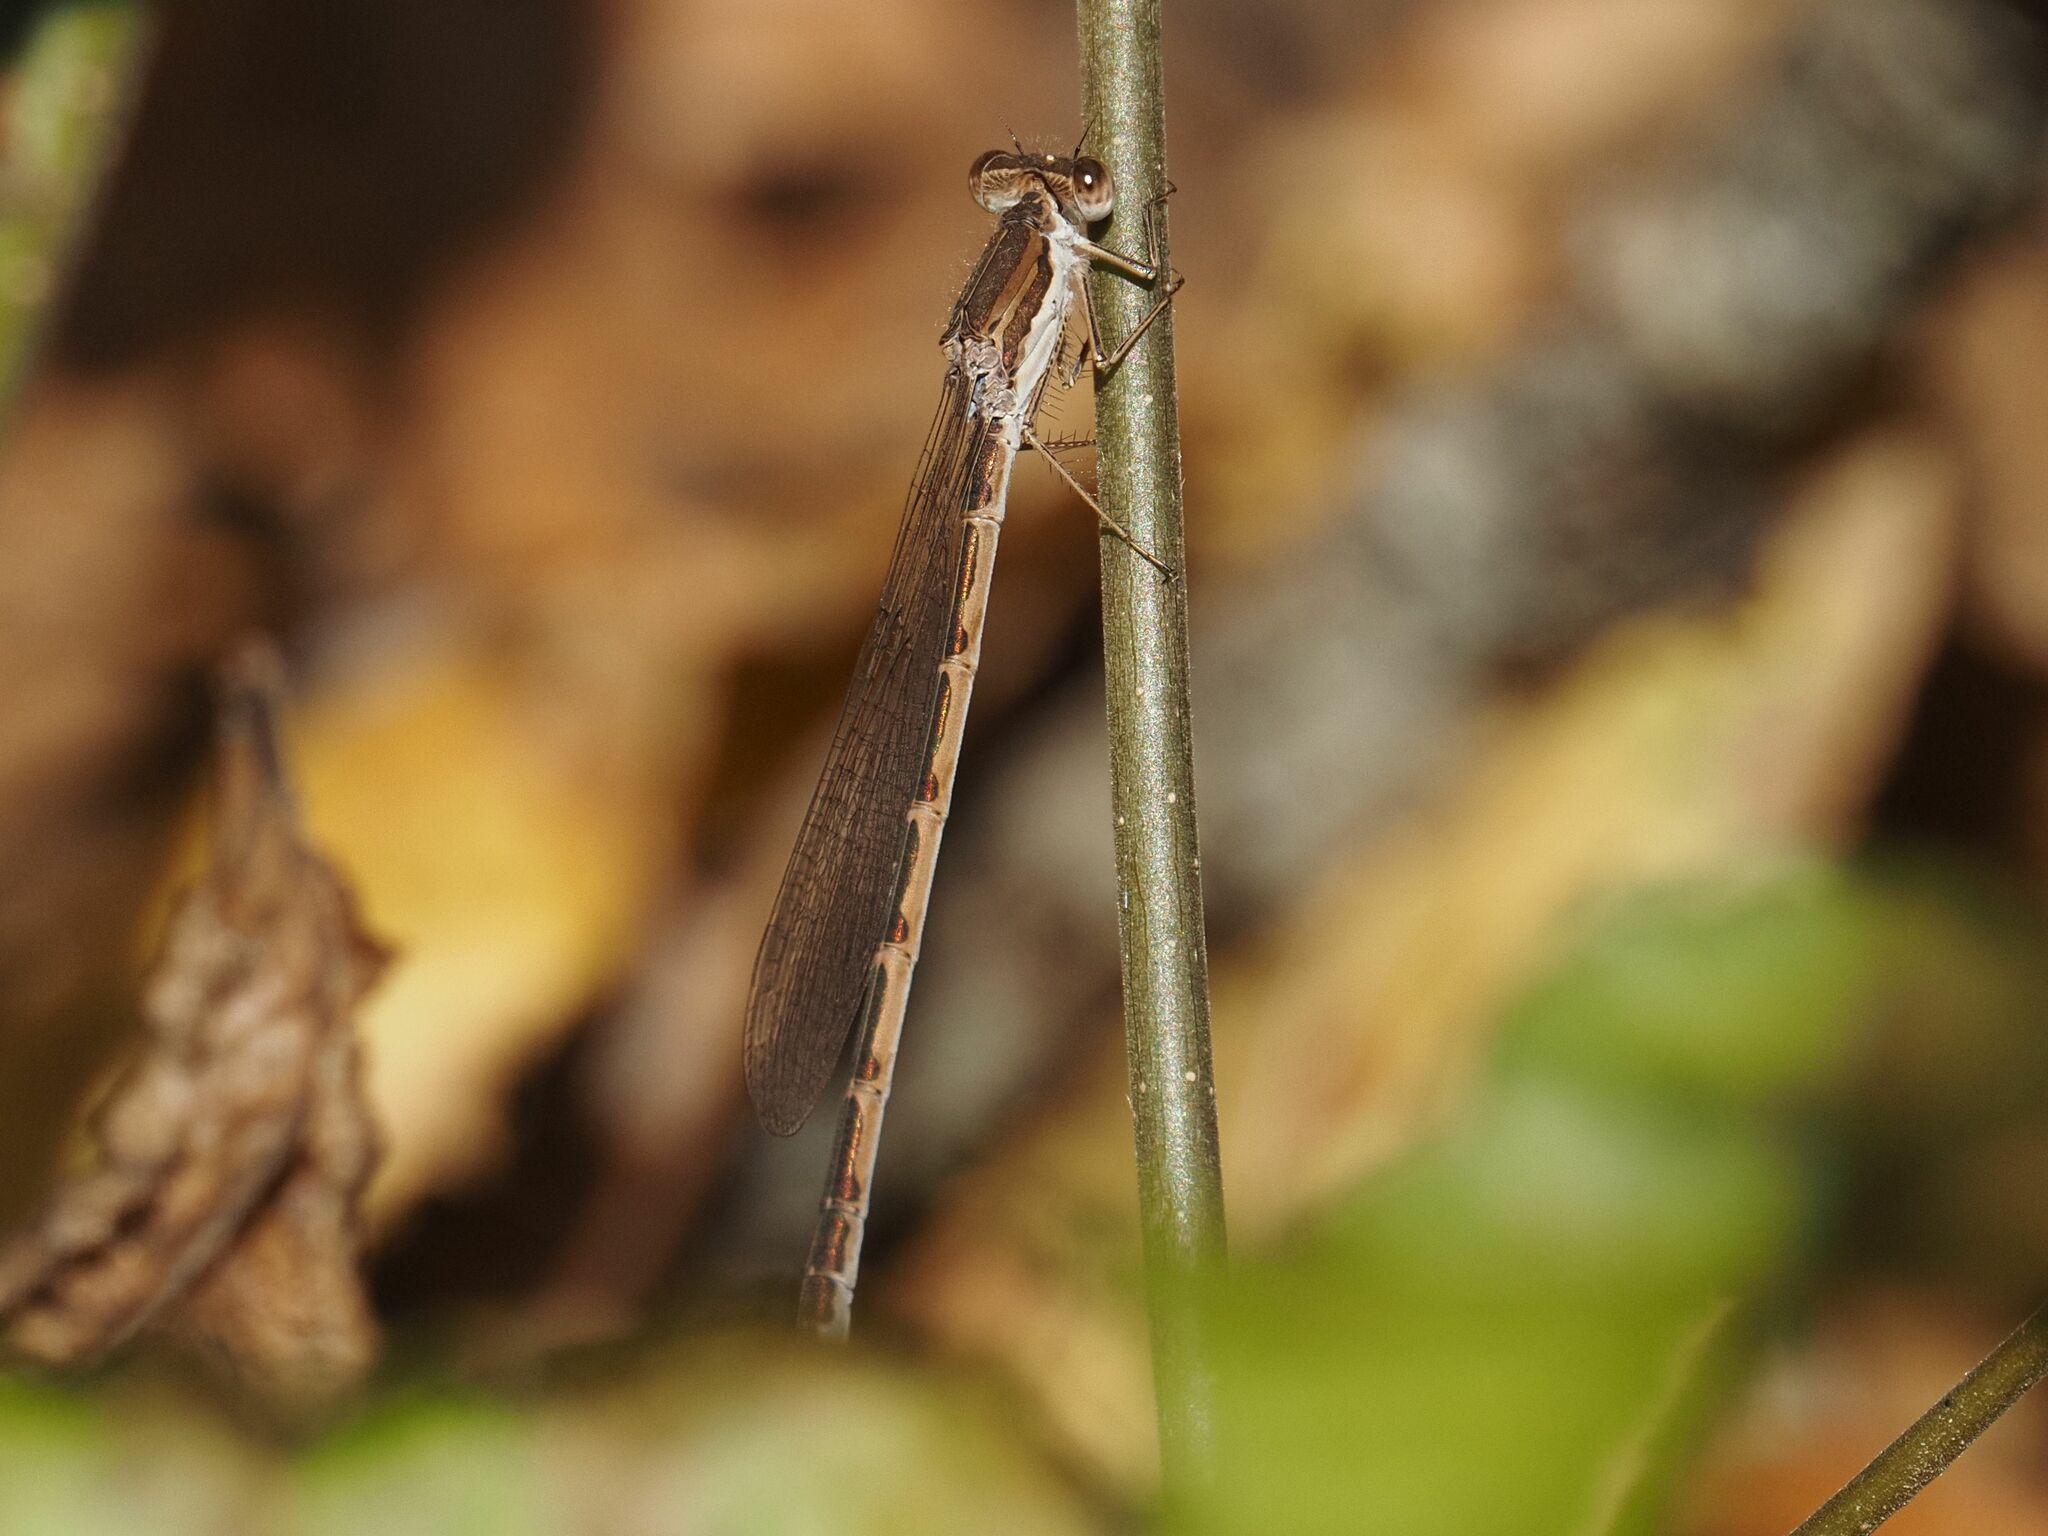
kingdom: Animalia
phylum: Arthropoda
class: Insecta
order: Odonata
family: Lestidae
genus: Sympecma
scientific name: Sympecma fusca
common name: Common winter damsel
